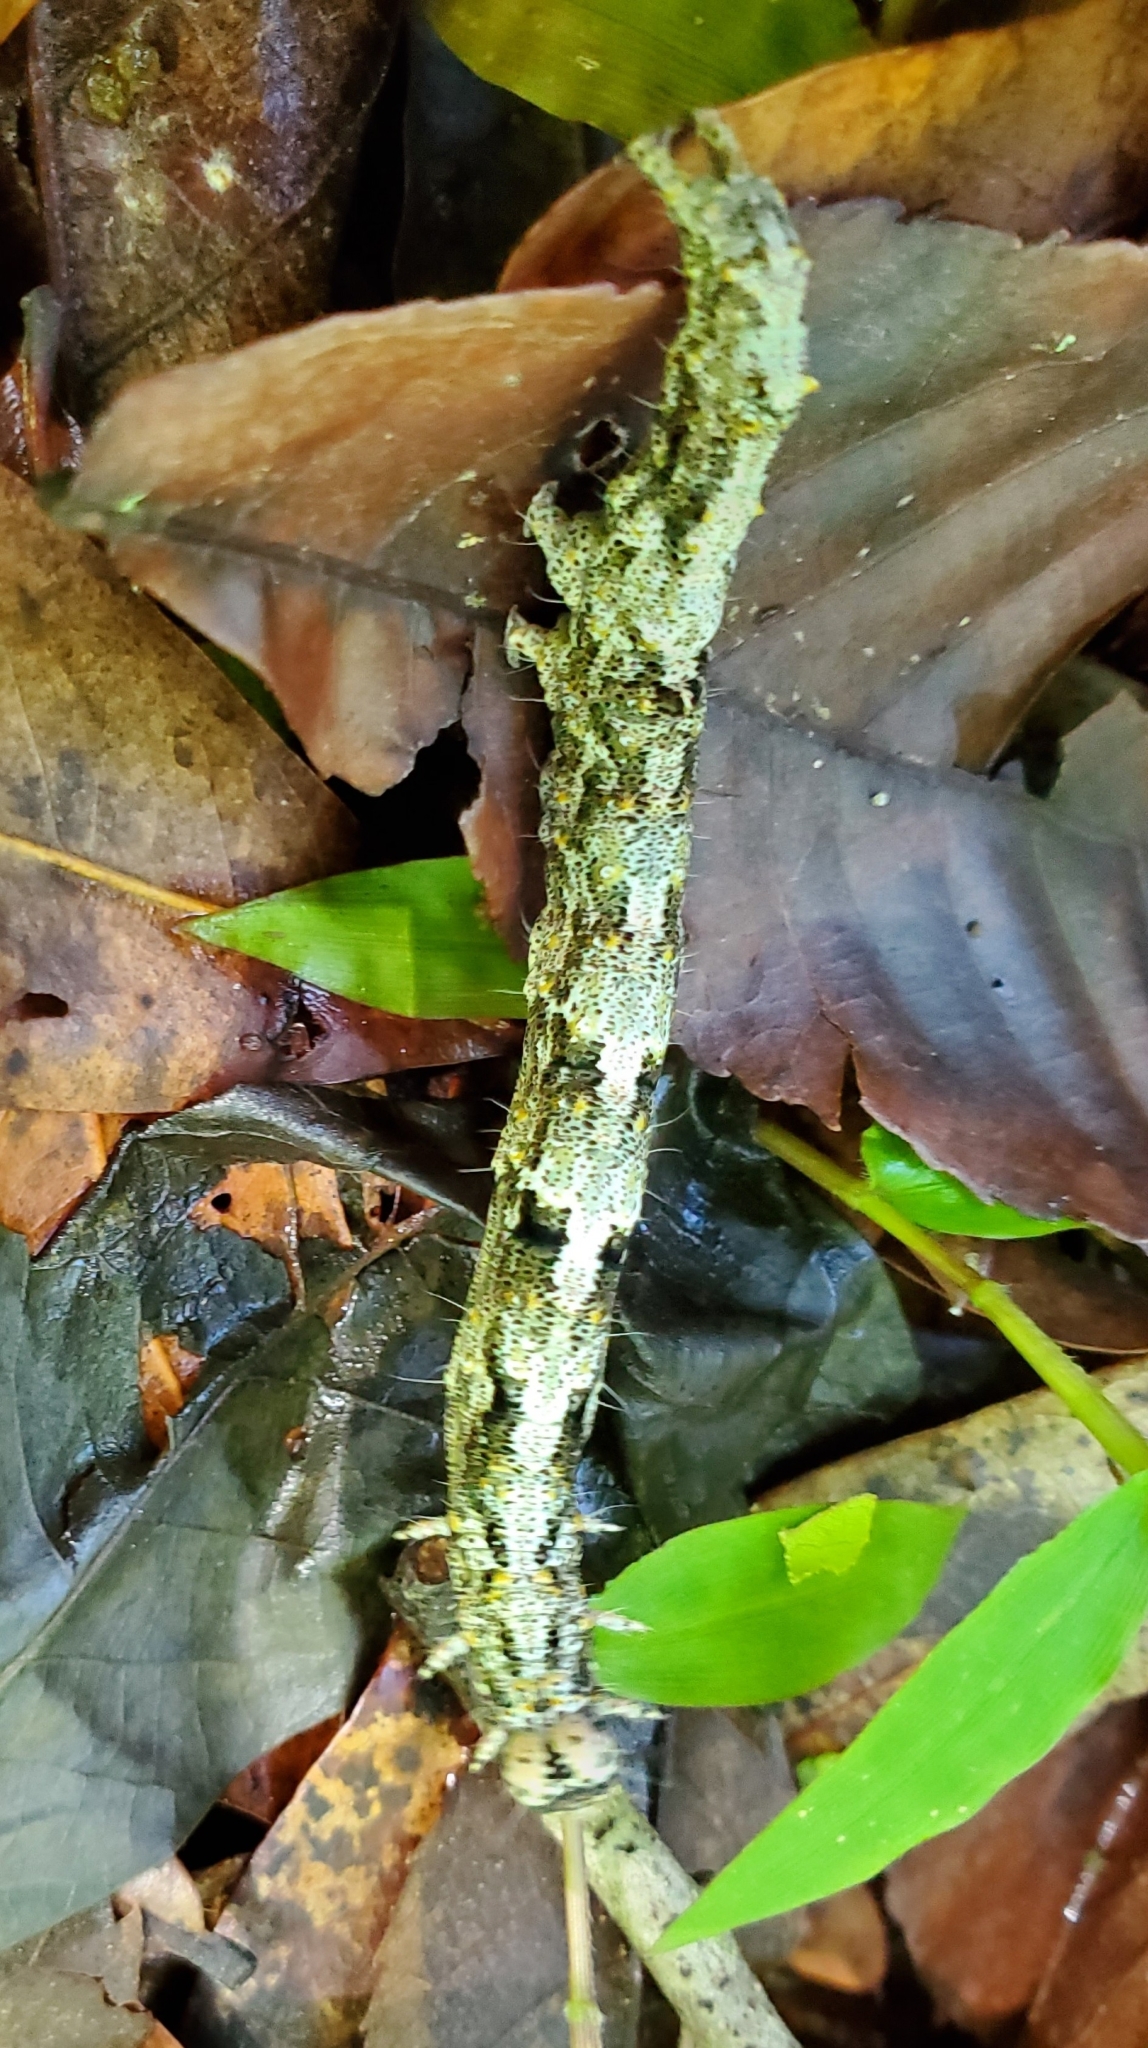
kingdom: Animalia
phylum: Arthropoda
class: Insecta
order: Lepidoptera
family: Erebidae
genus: Metria
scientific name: Metria amella
